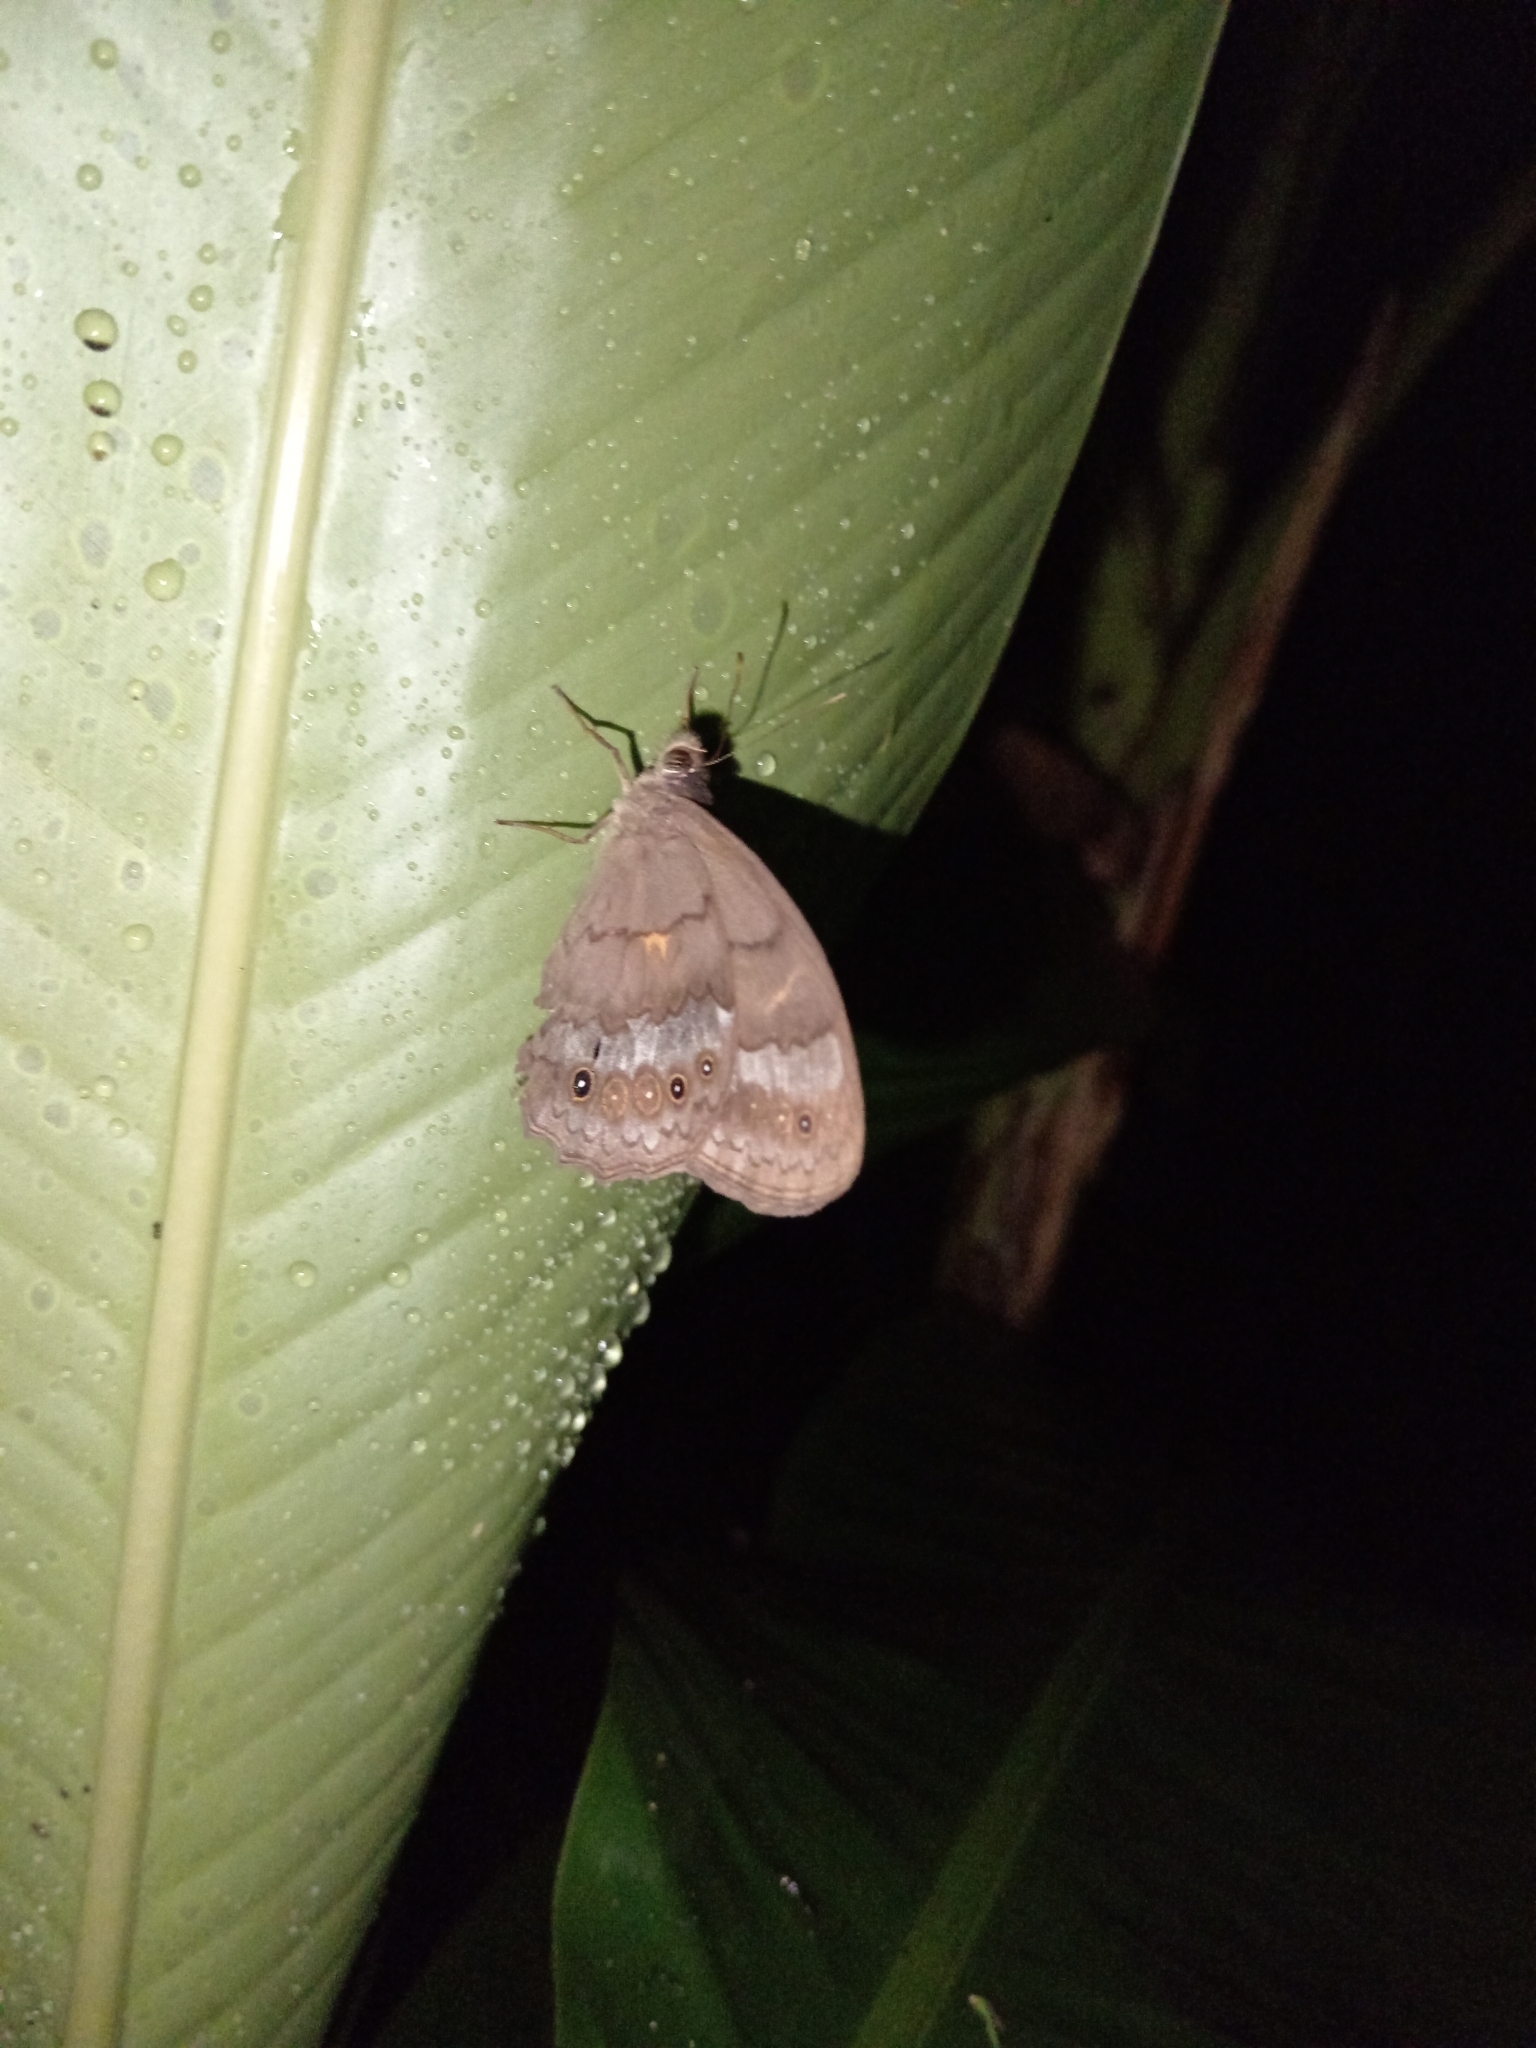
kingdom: Animalia
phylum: Arthropoda
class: Insecta
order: Lepidoptera
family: Nymphalidae
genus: Pseudodebis
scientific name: Pseudodebis valentina
